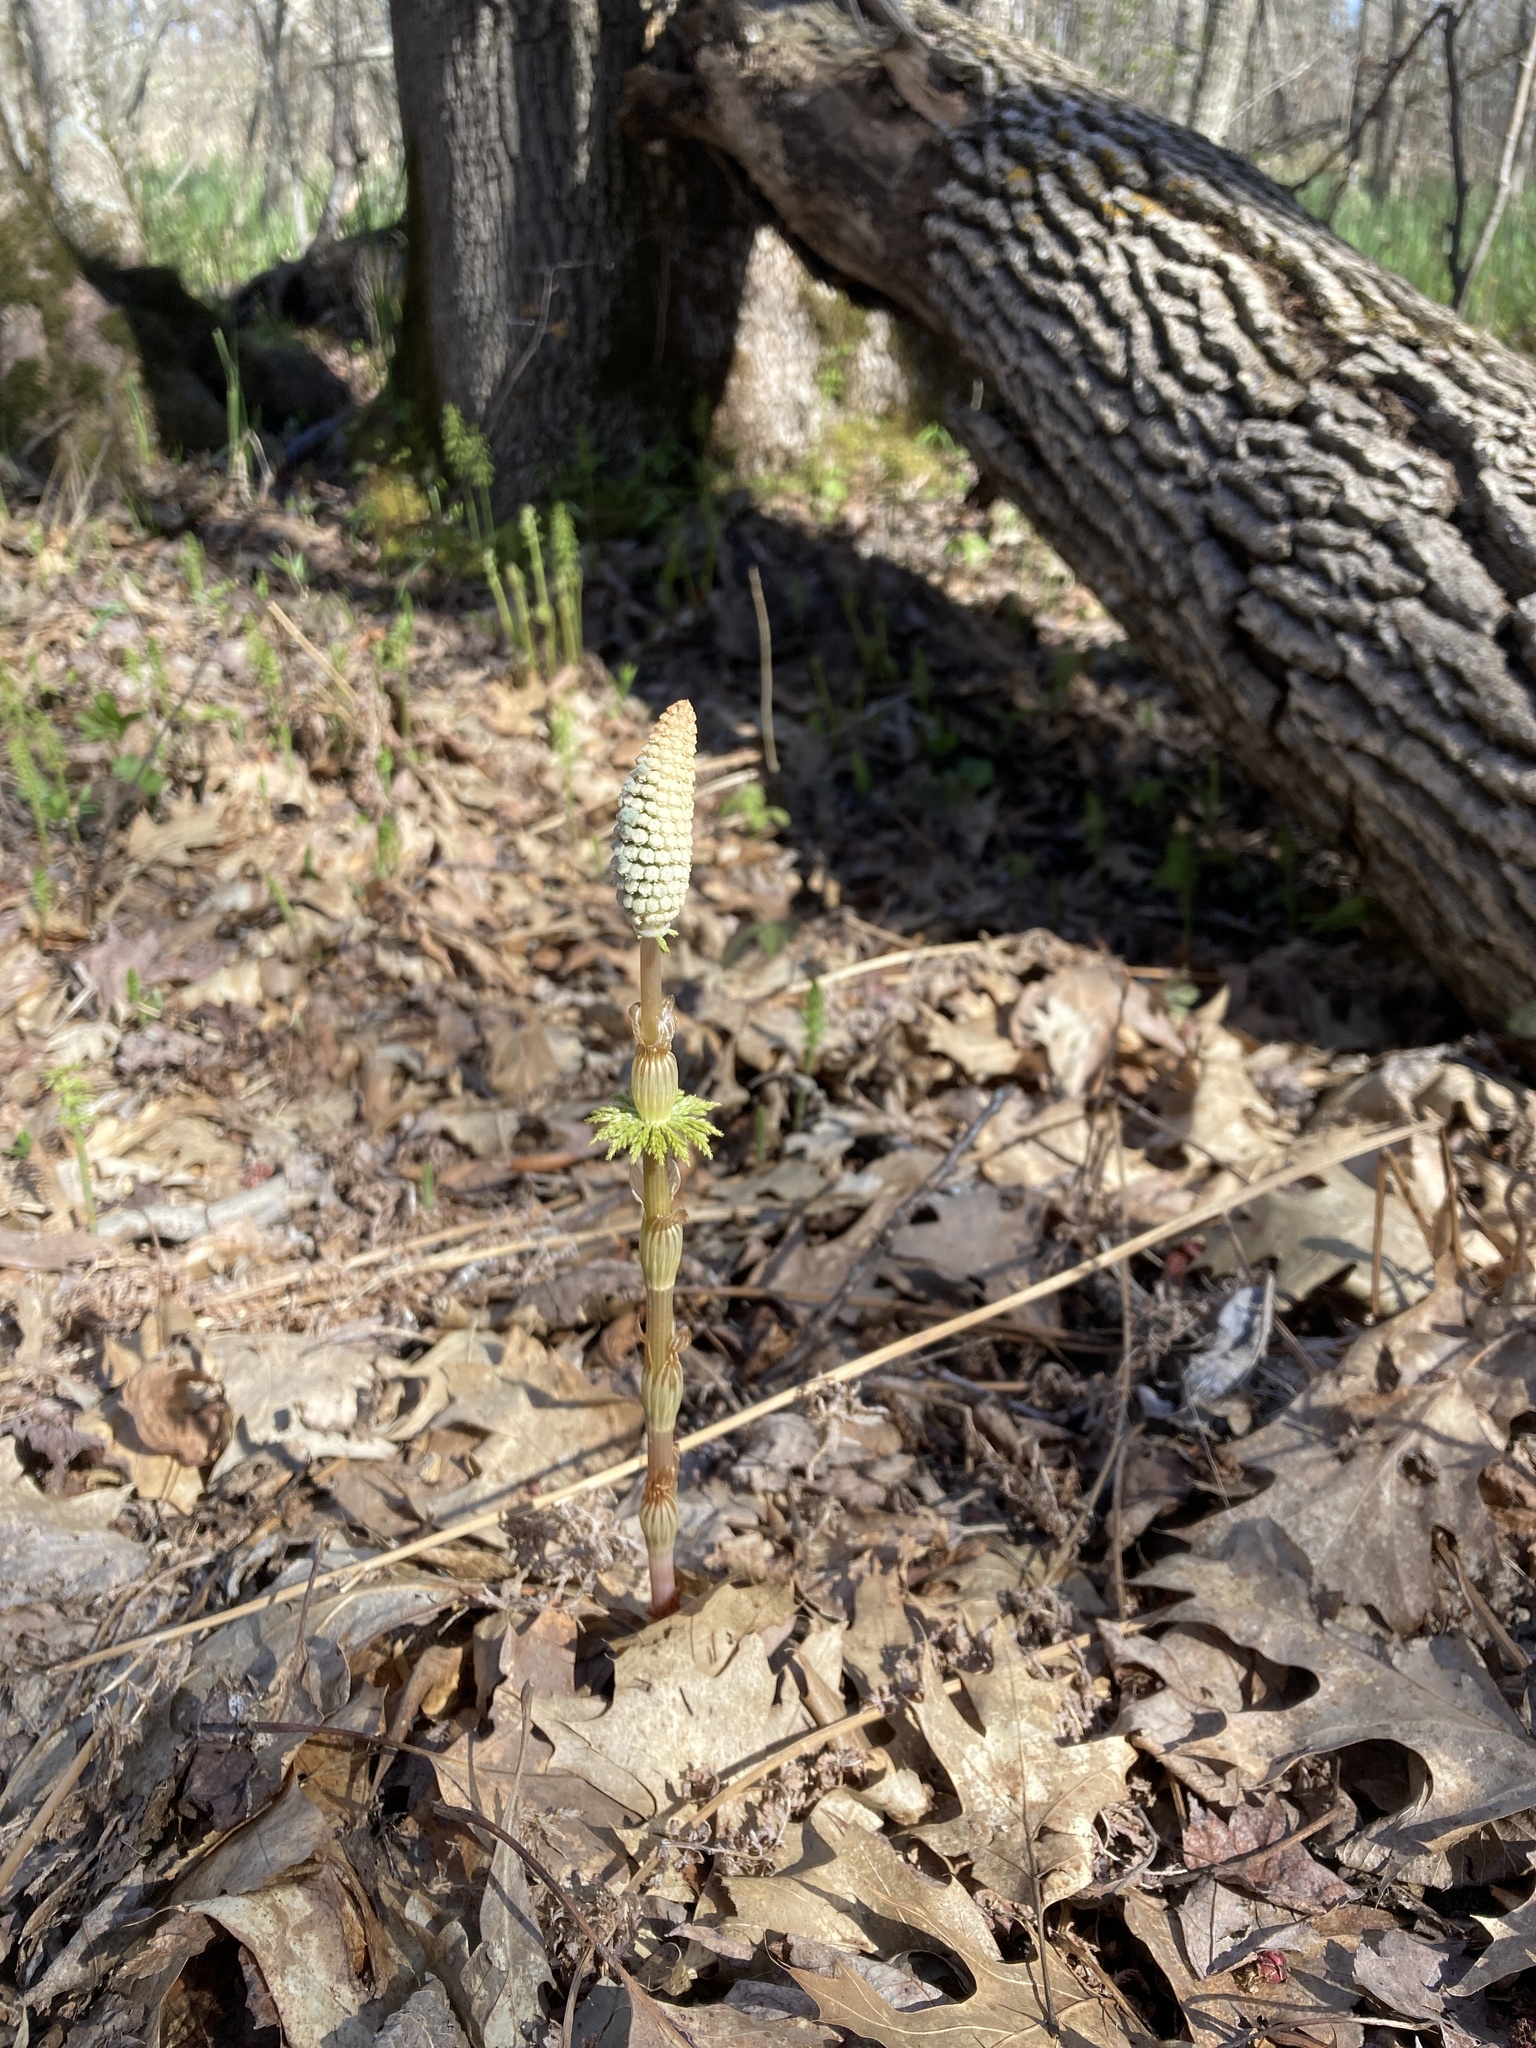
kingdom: Plantae
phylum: Tracheophyta
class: Polypodiopsida
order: Equisetales
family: Equisetaceae
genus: Equisetum
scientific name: Equisetum sylvaticum
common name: Wood horsetail
